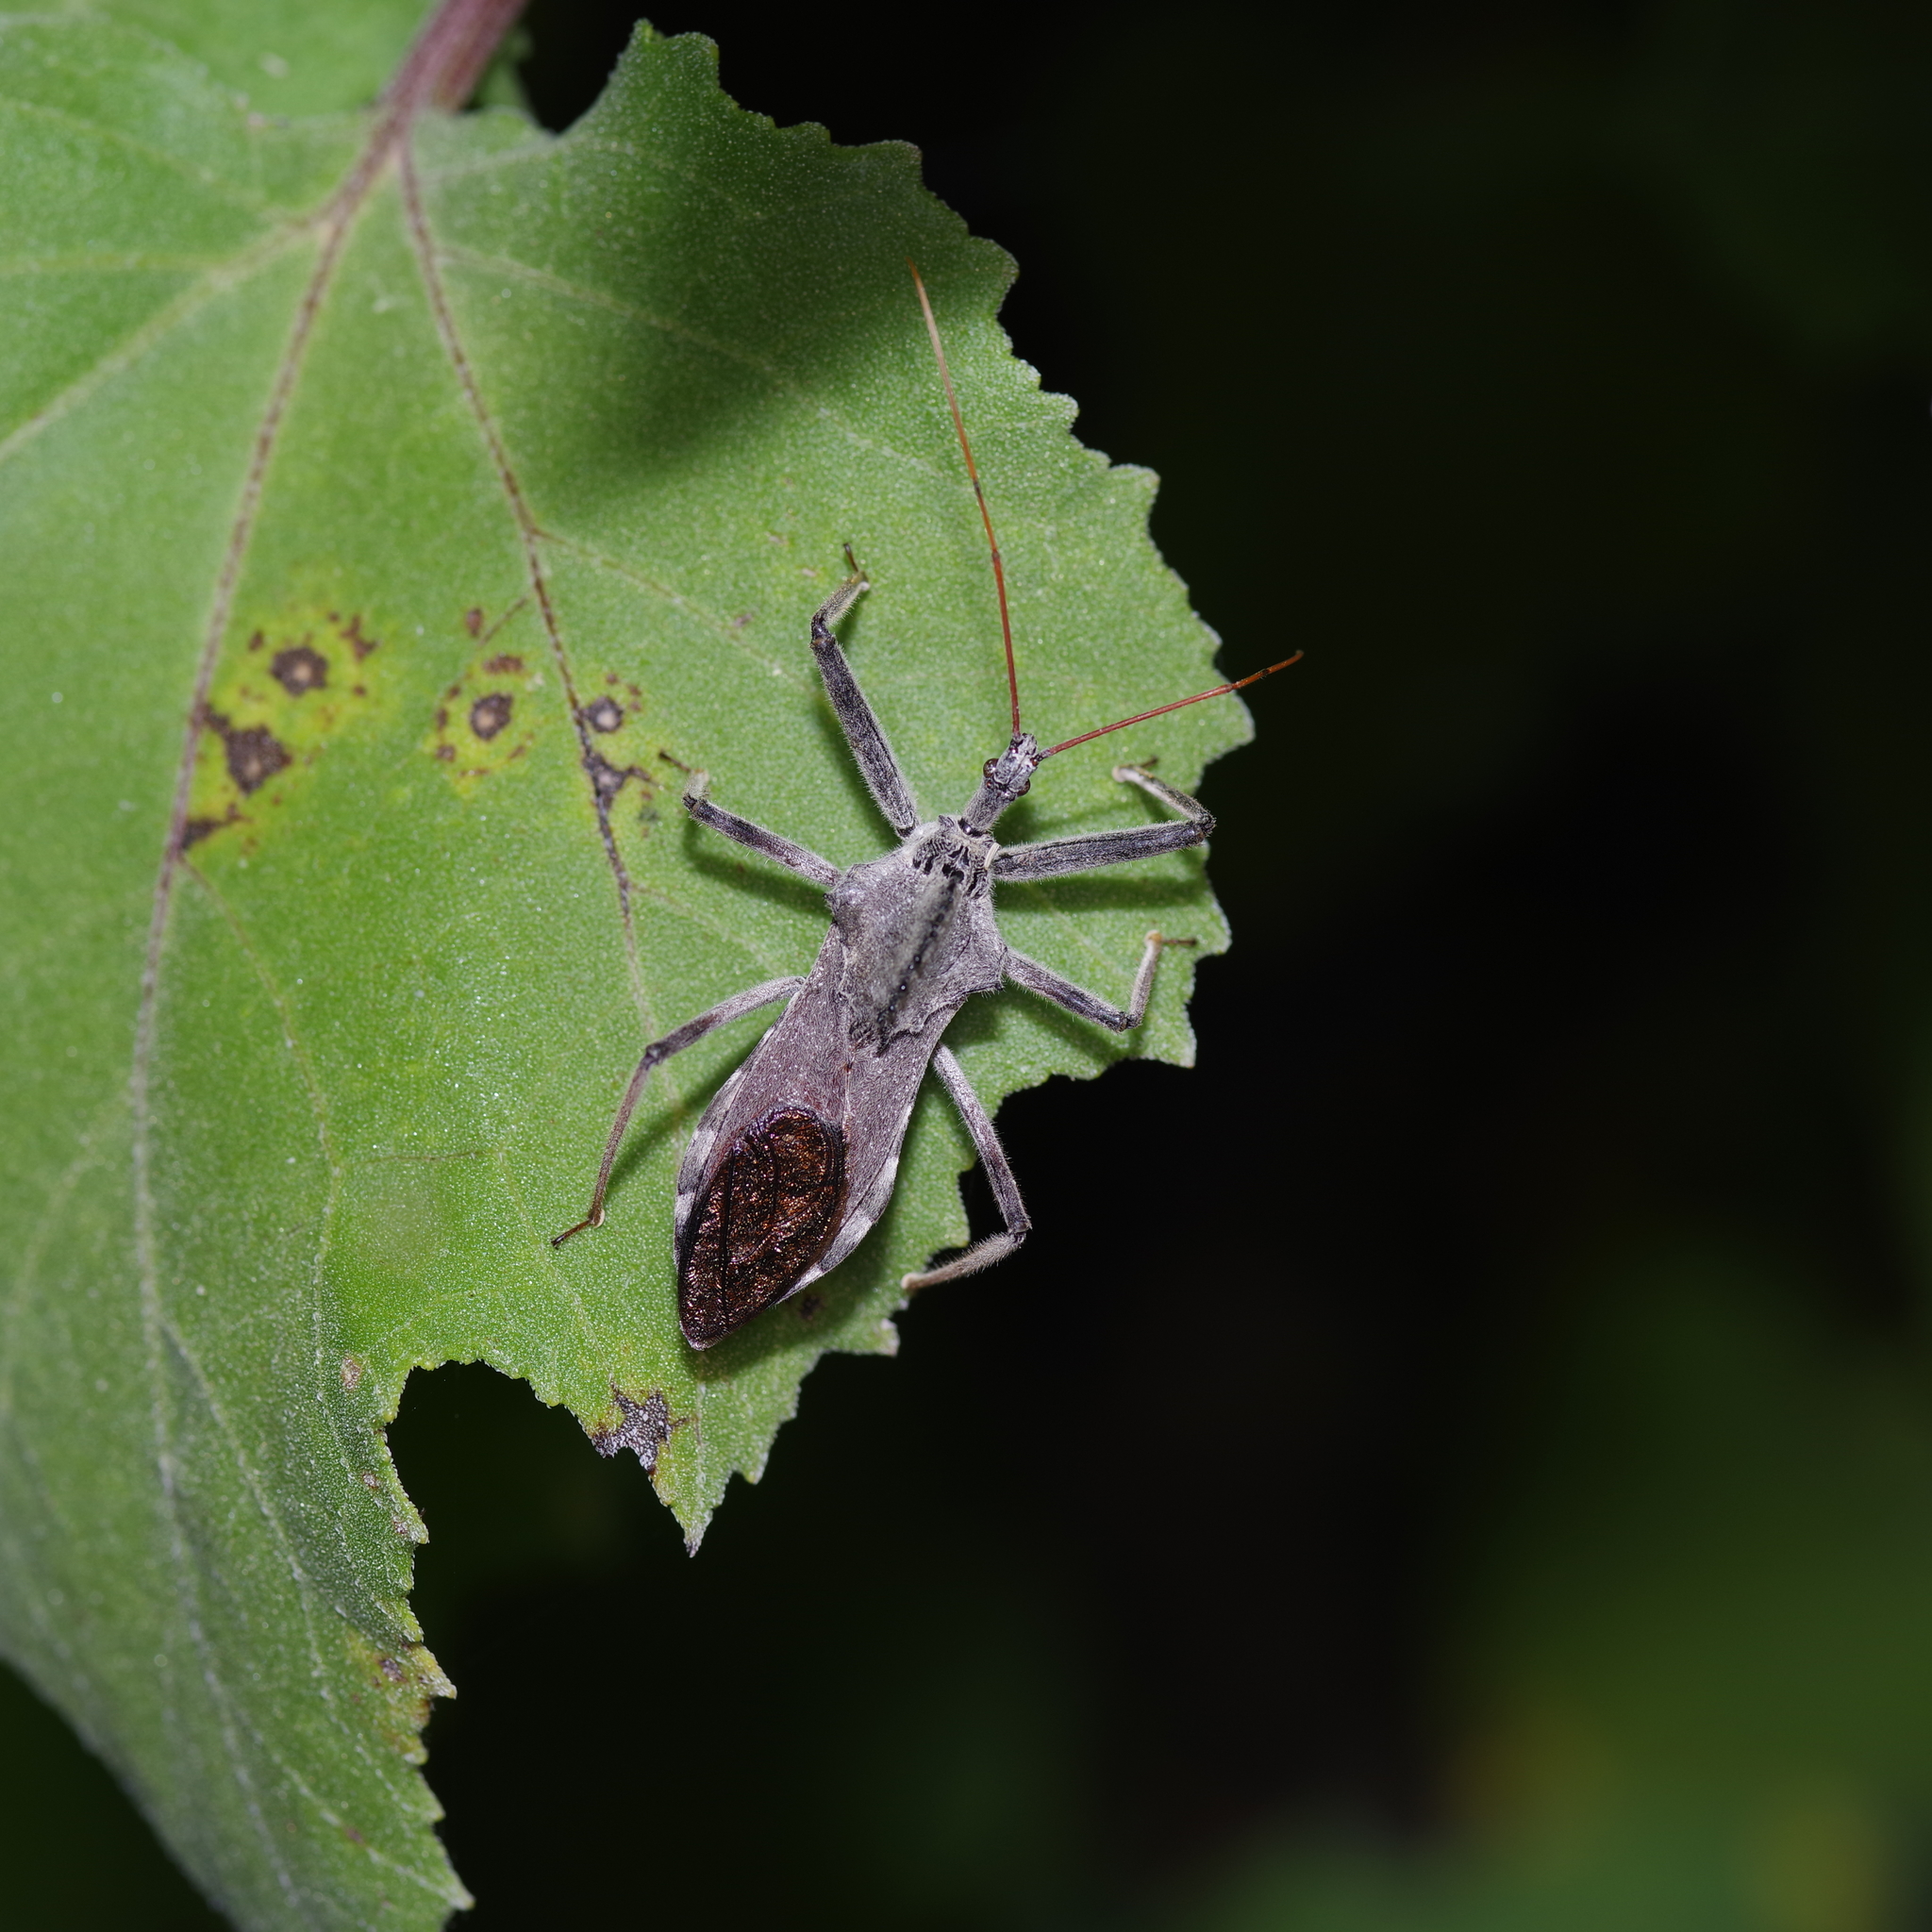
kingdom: Animalia
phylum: Arthropoda
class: Insecta
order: Hemiptera
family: Reduviidae
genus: Arilus
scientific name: Arilus cristatus
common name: North american wheel bug
